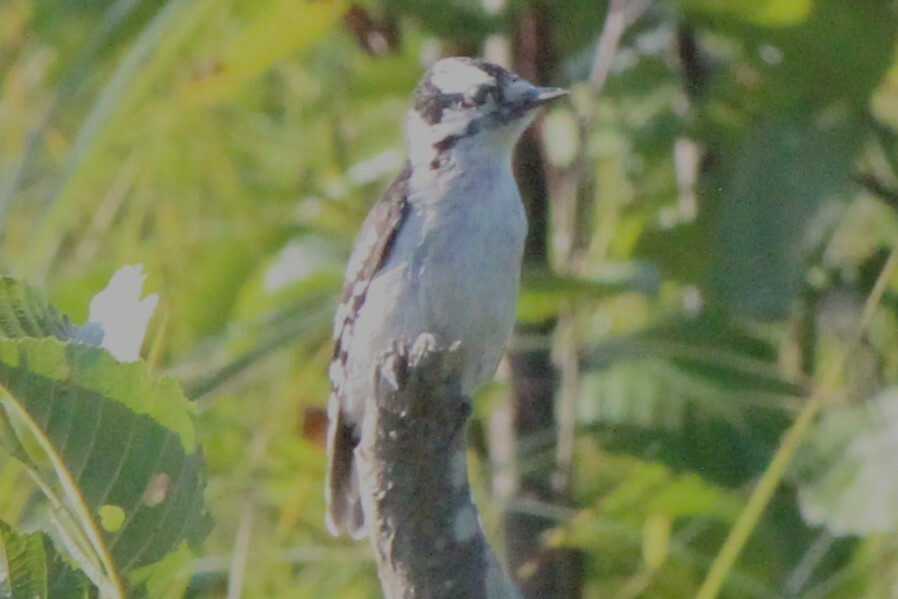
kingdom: Animalia
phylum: Chordata
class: Aves
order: Piciformes
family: Picidae
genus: Dryobates
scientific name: Dryobates pubescens
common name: Downy woodpecker
